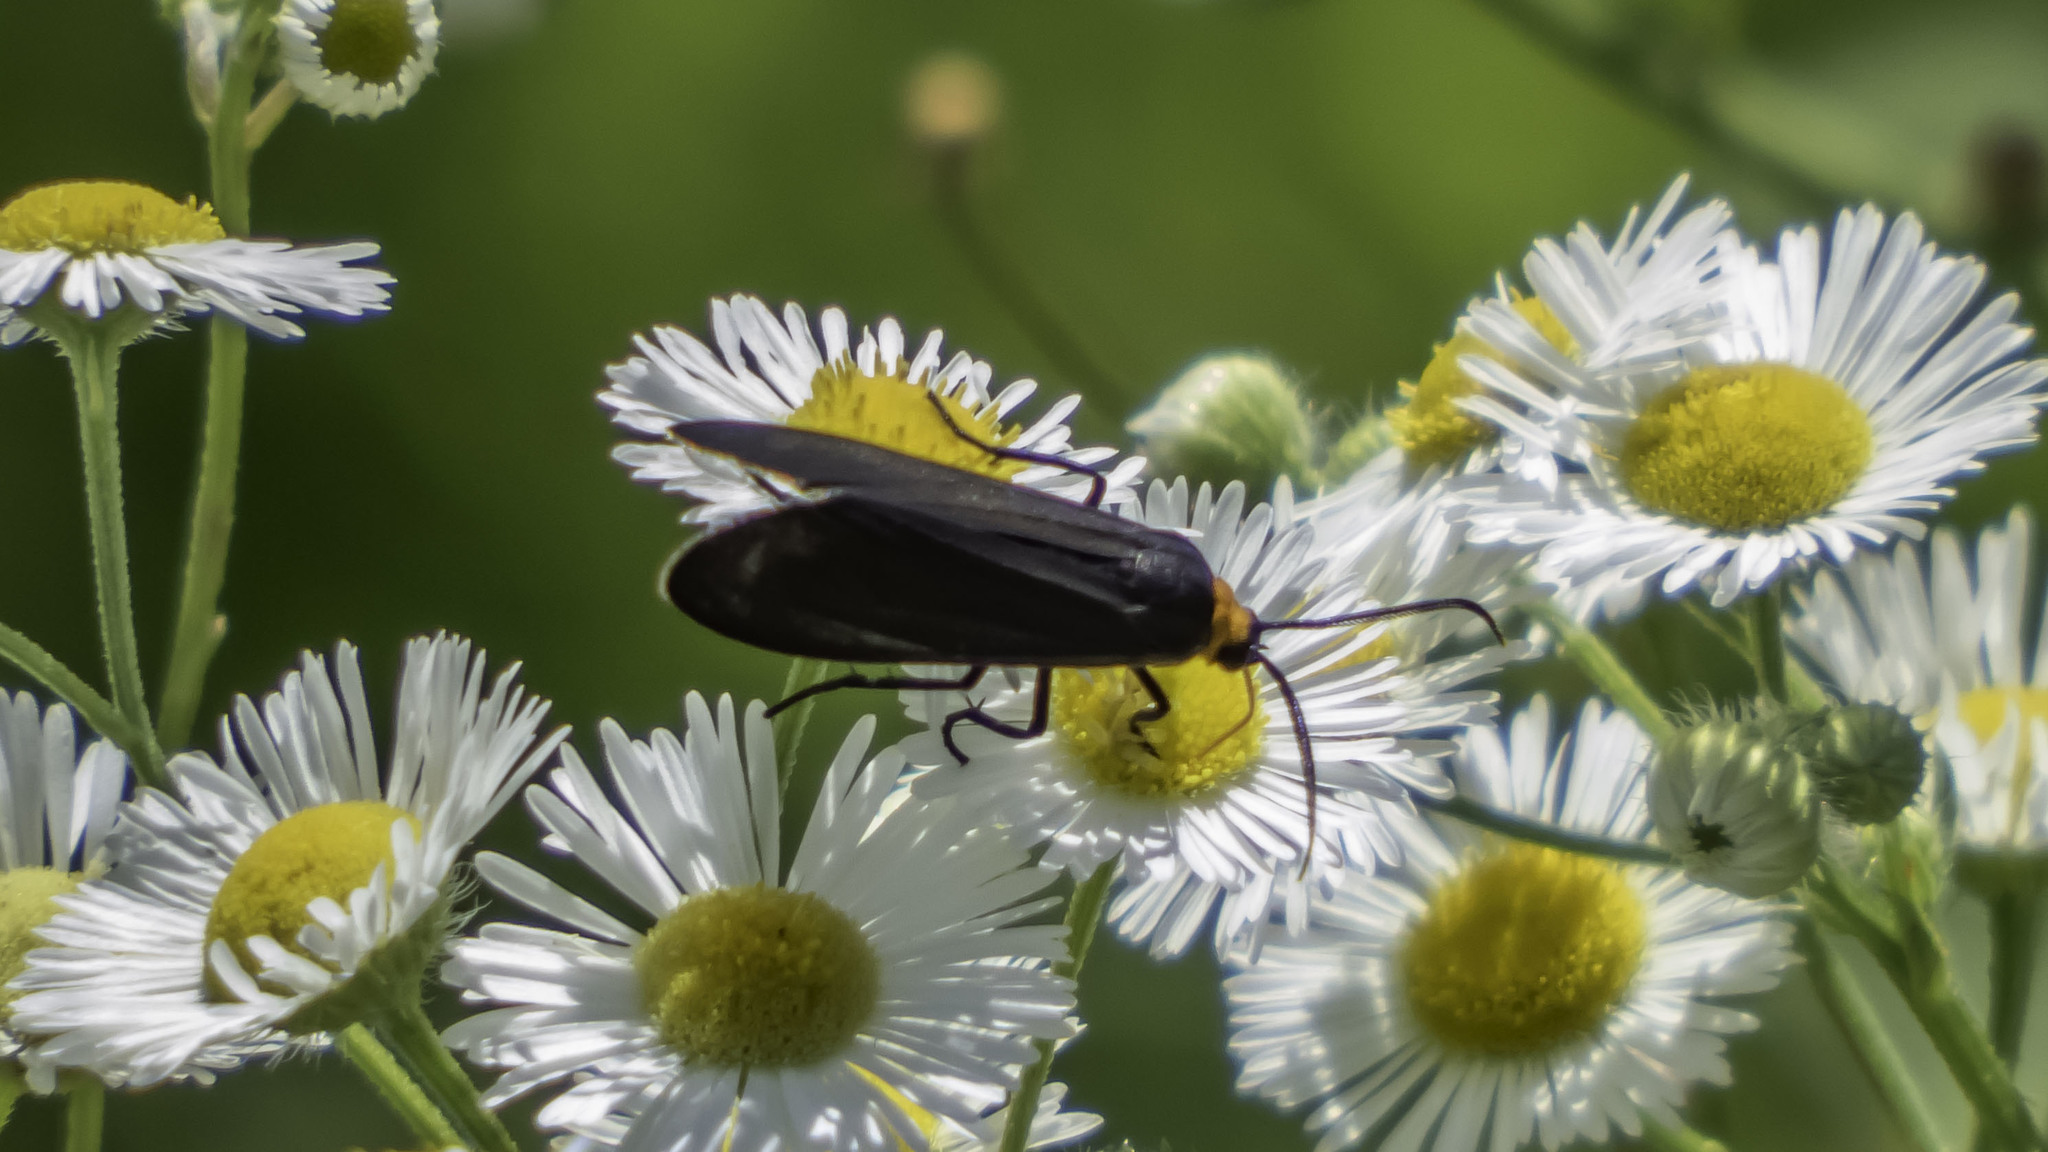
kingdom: Animalia
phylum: Arthropoda
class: Insecta
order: Lepidoptera
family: Erebidae
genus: Cisseps
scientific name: Cisseps fulvicollis
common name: Yellow-collared scape moth
